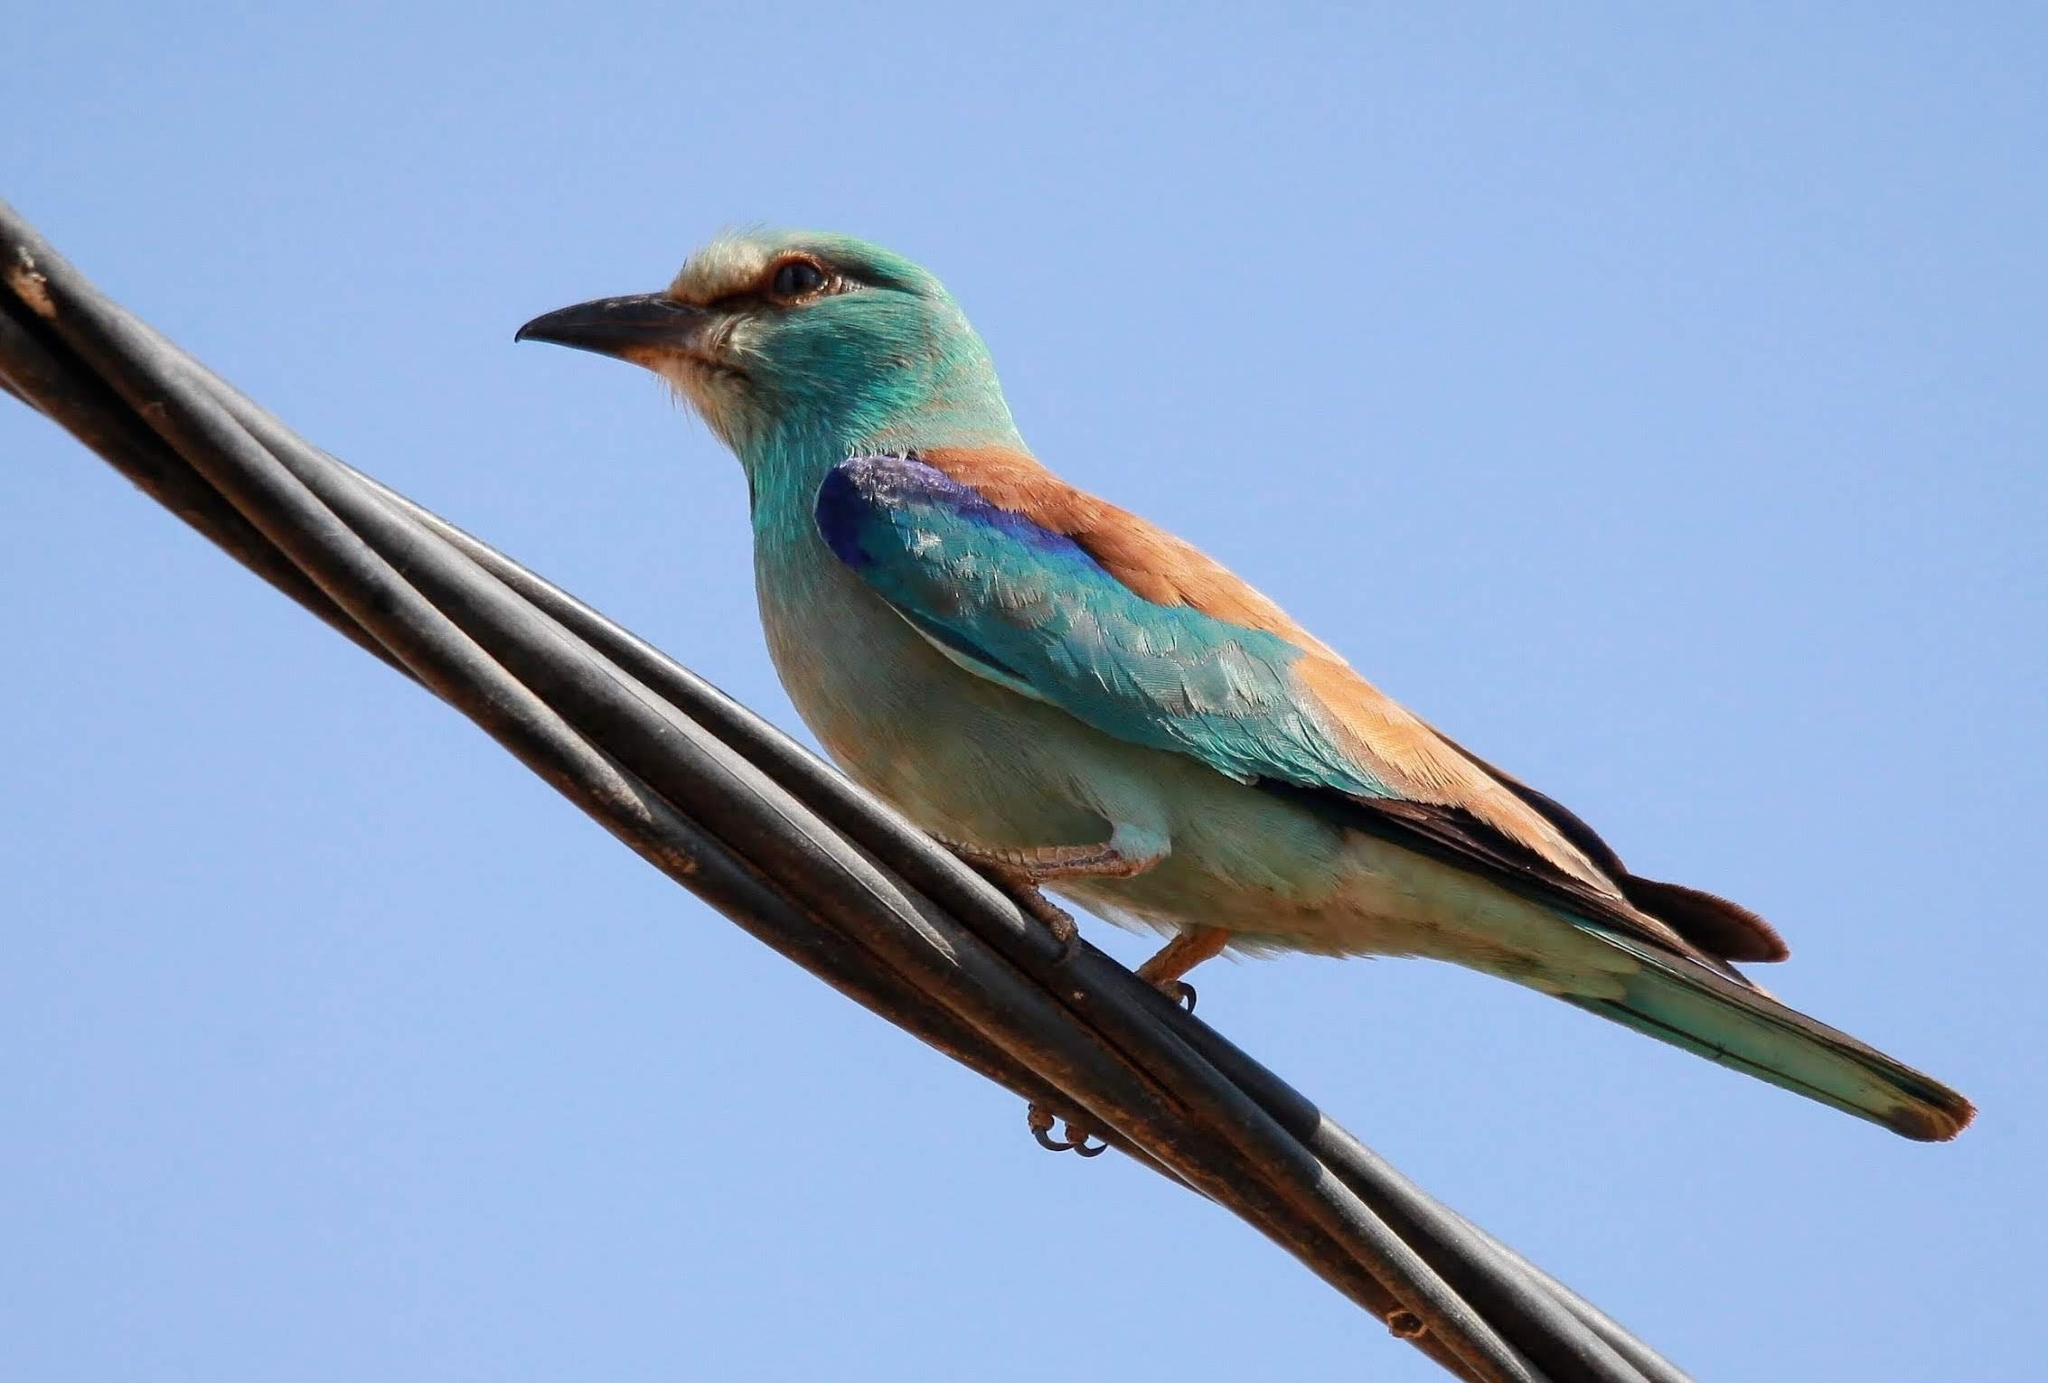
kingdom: Animalia
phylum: Chordata
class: Aves
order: Coraciiformes
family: Coraciidae
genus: Coracias
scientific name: Coracias garrulus
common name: European roller
